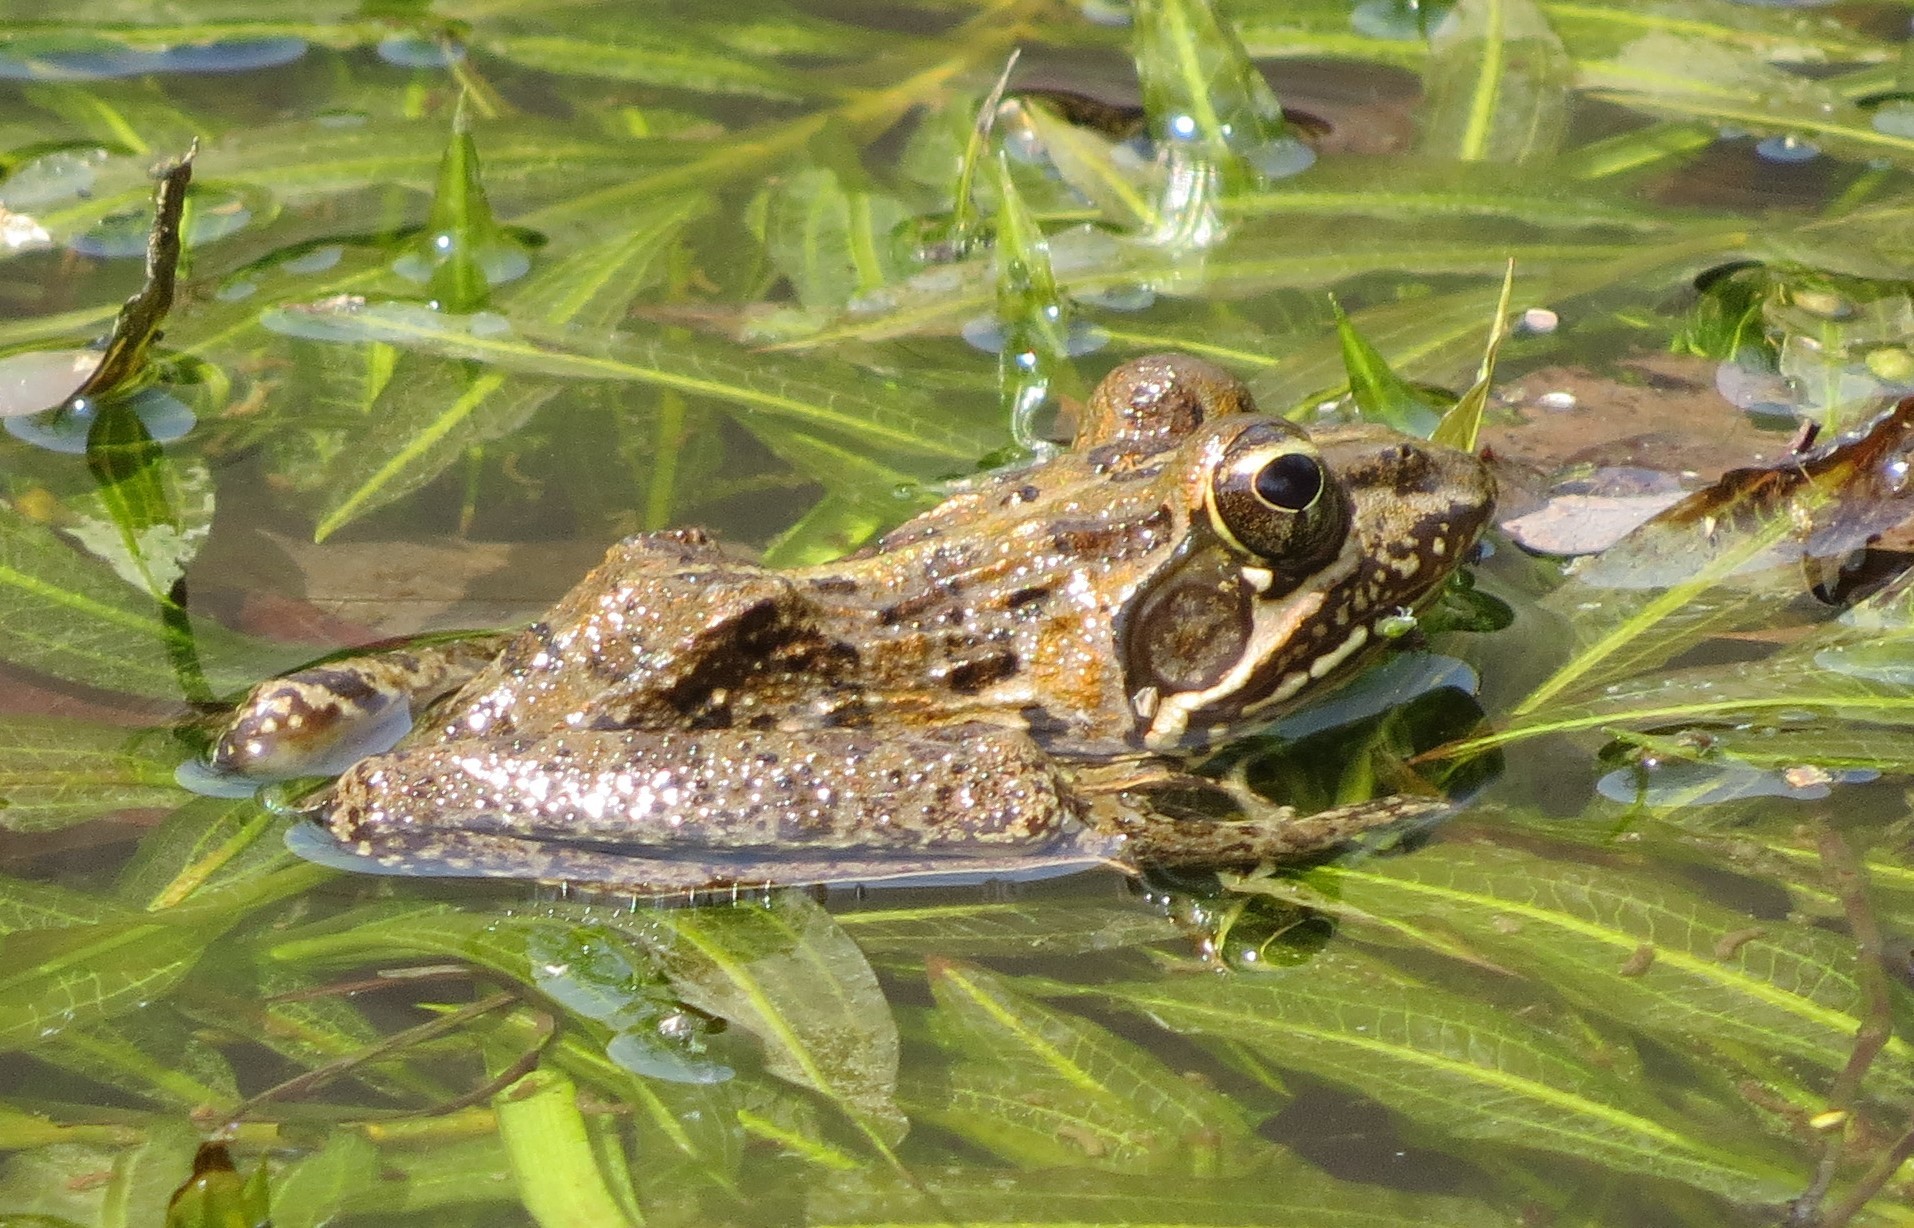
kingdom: Animalia
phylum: Chordata
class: Amphibia
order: Anura
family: Pyxicephalidae
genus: Amietia
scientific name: Amietia delalandii
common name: Delalande's river frog
